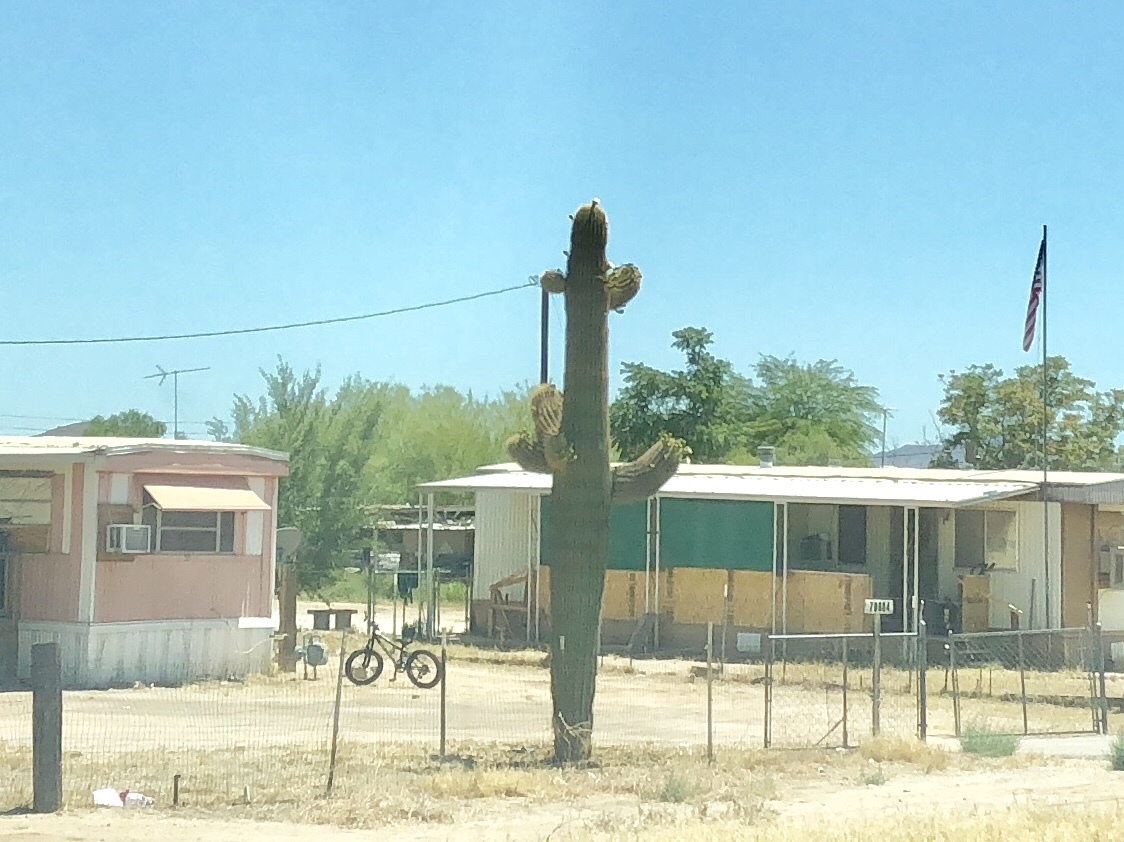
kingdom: Plantae
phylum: Tracheophyta
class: Magnoliopsida
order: Caryophyllales
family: Cactaceae
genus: Carnegiea
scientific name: Carnegiea gigantea
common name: Saguaro
